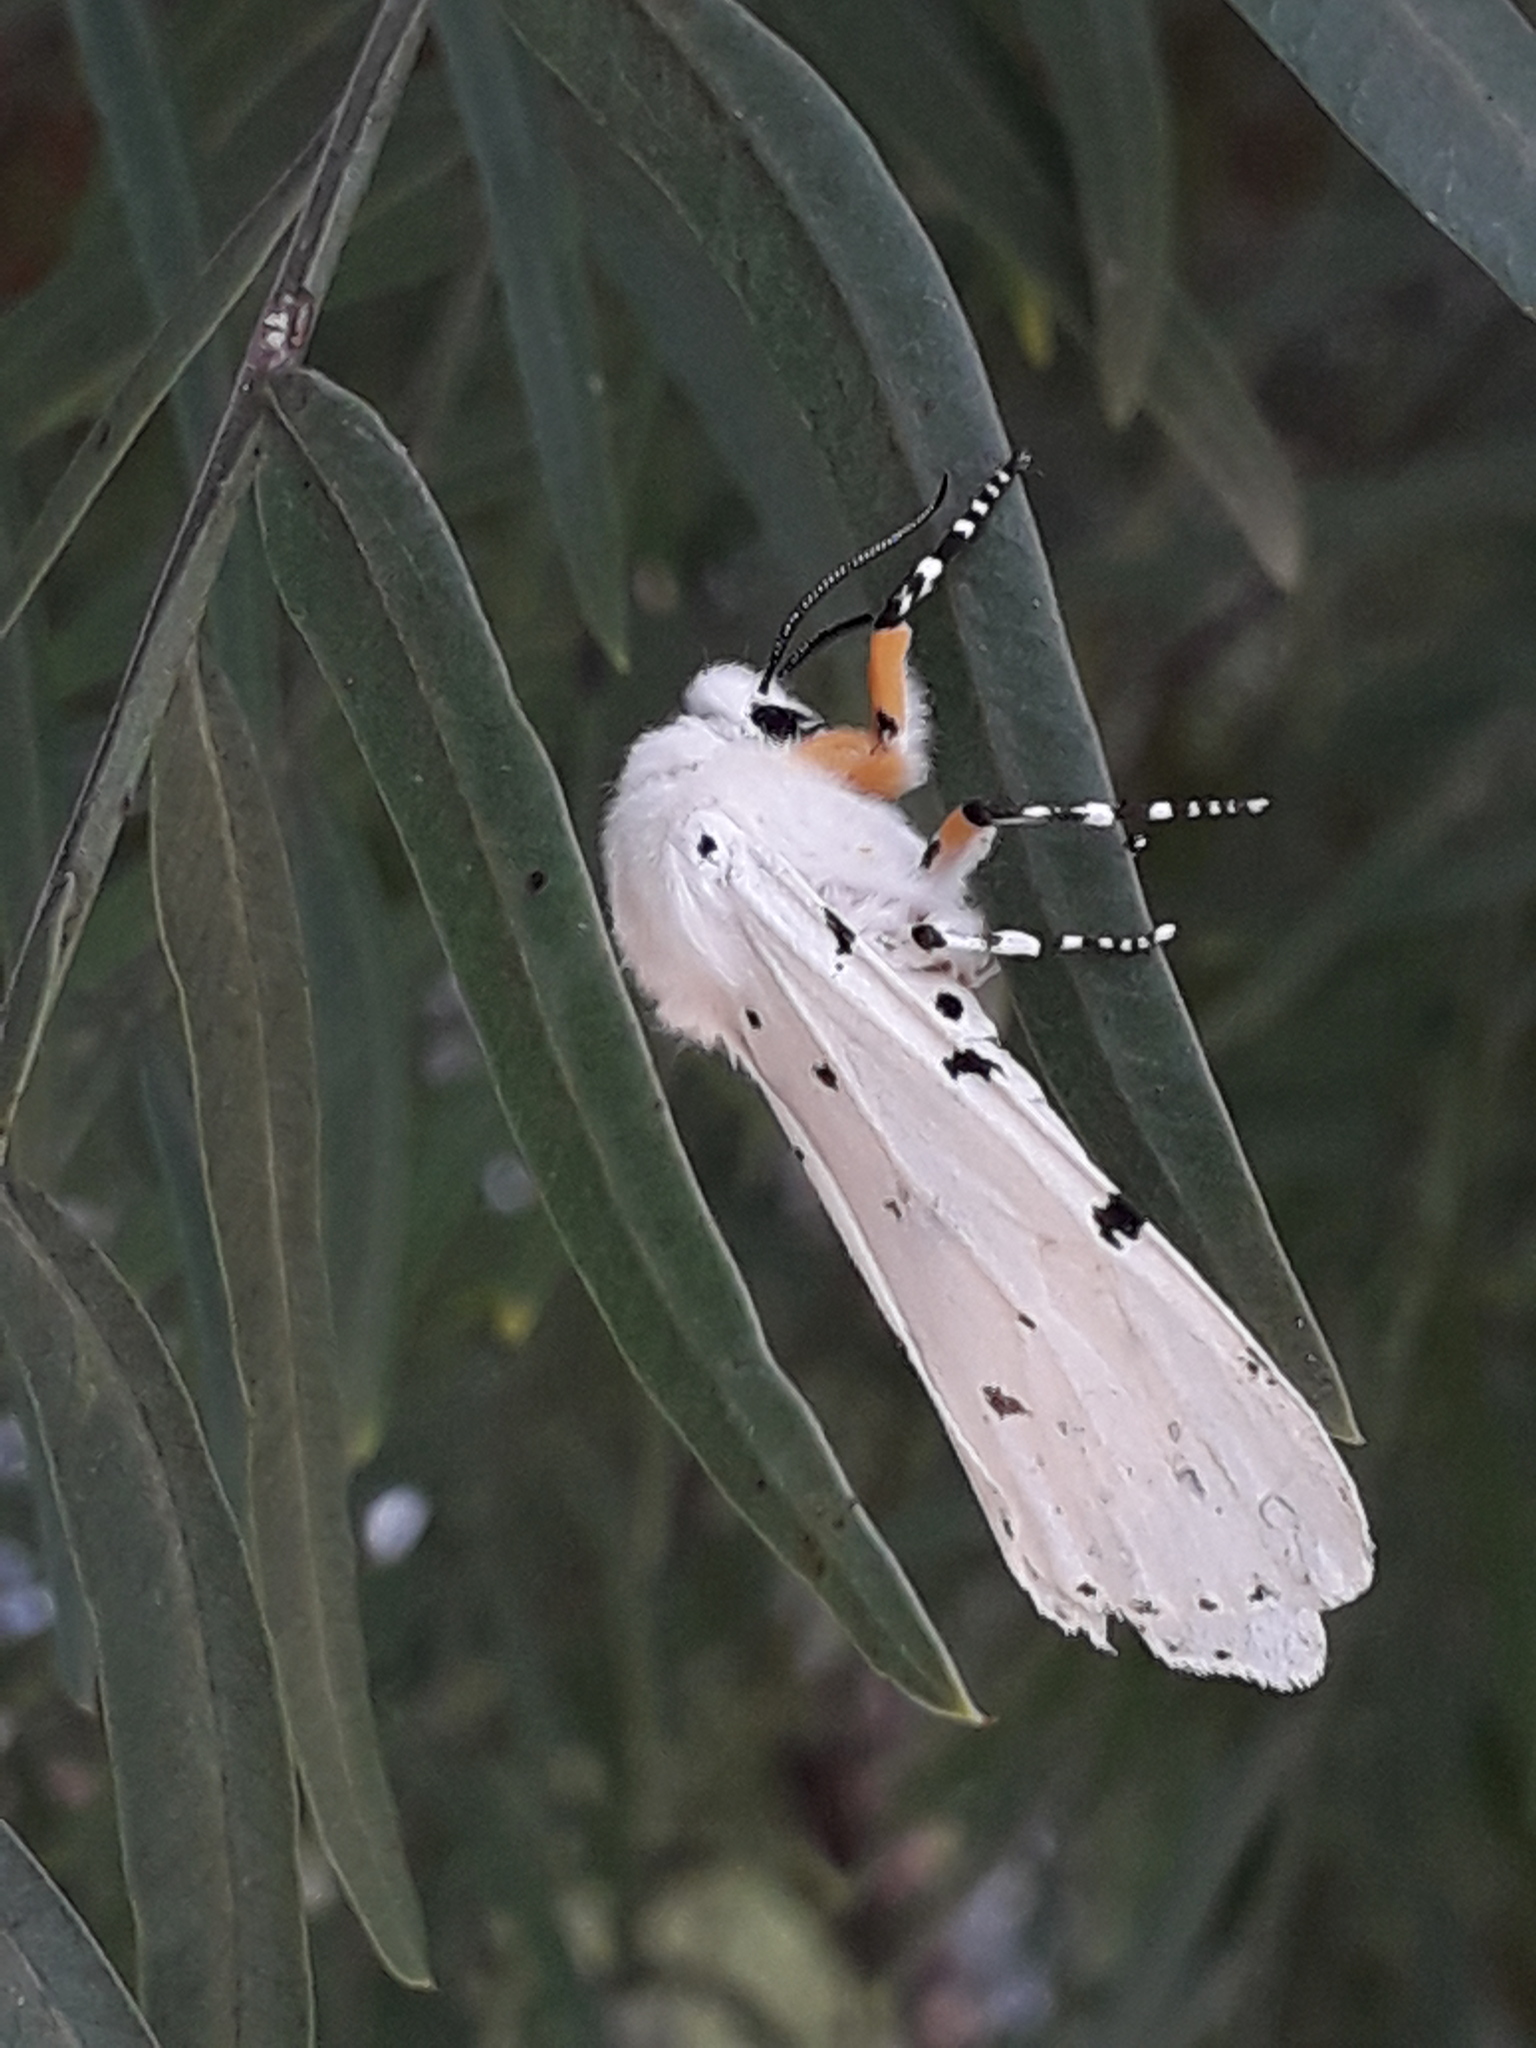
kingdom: Animalia
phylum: Arthropoda
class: Insecta
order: Lepidoptera
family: Erebidae
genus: Estigmene
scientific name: Estigmene acrea
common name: Salt marsh moth
